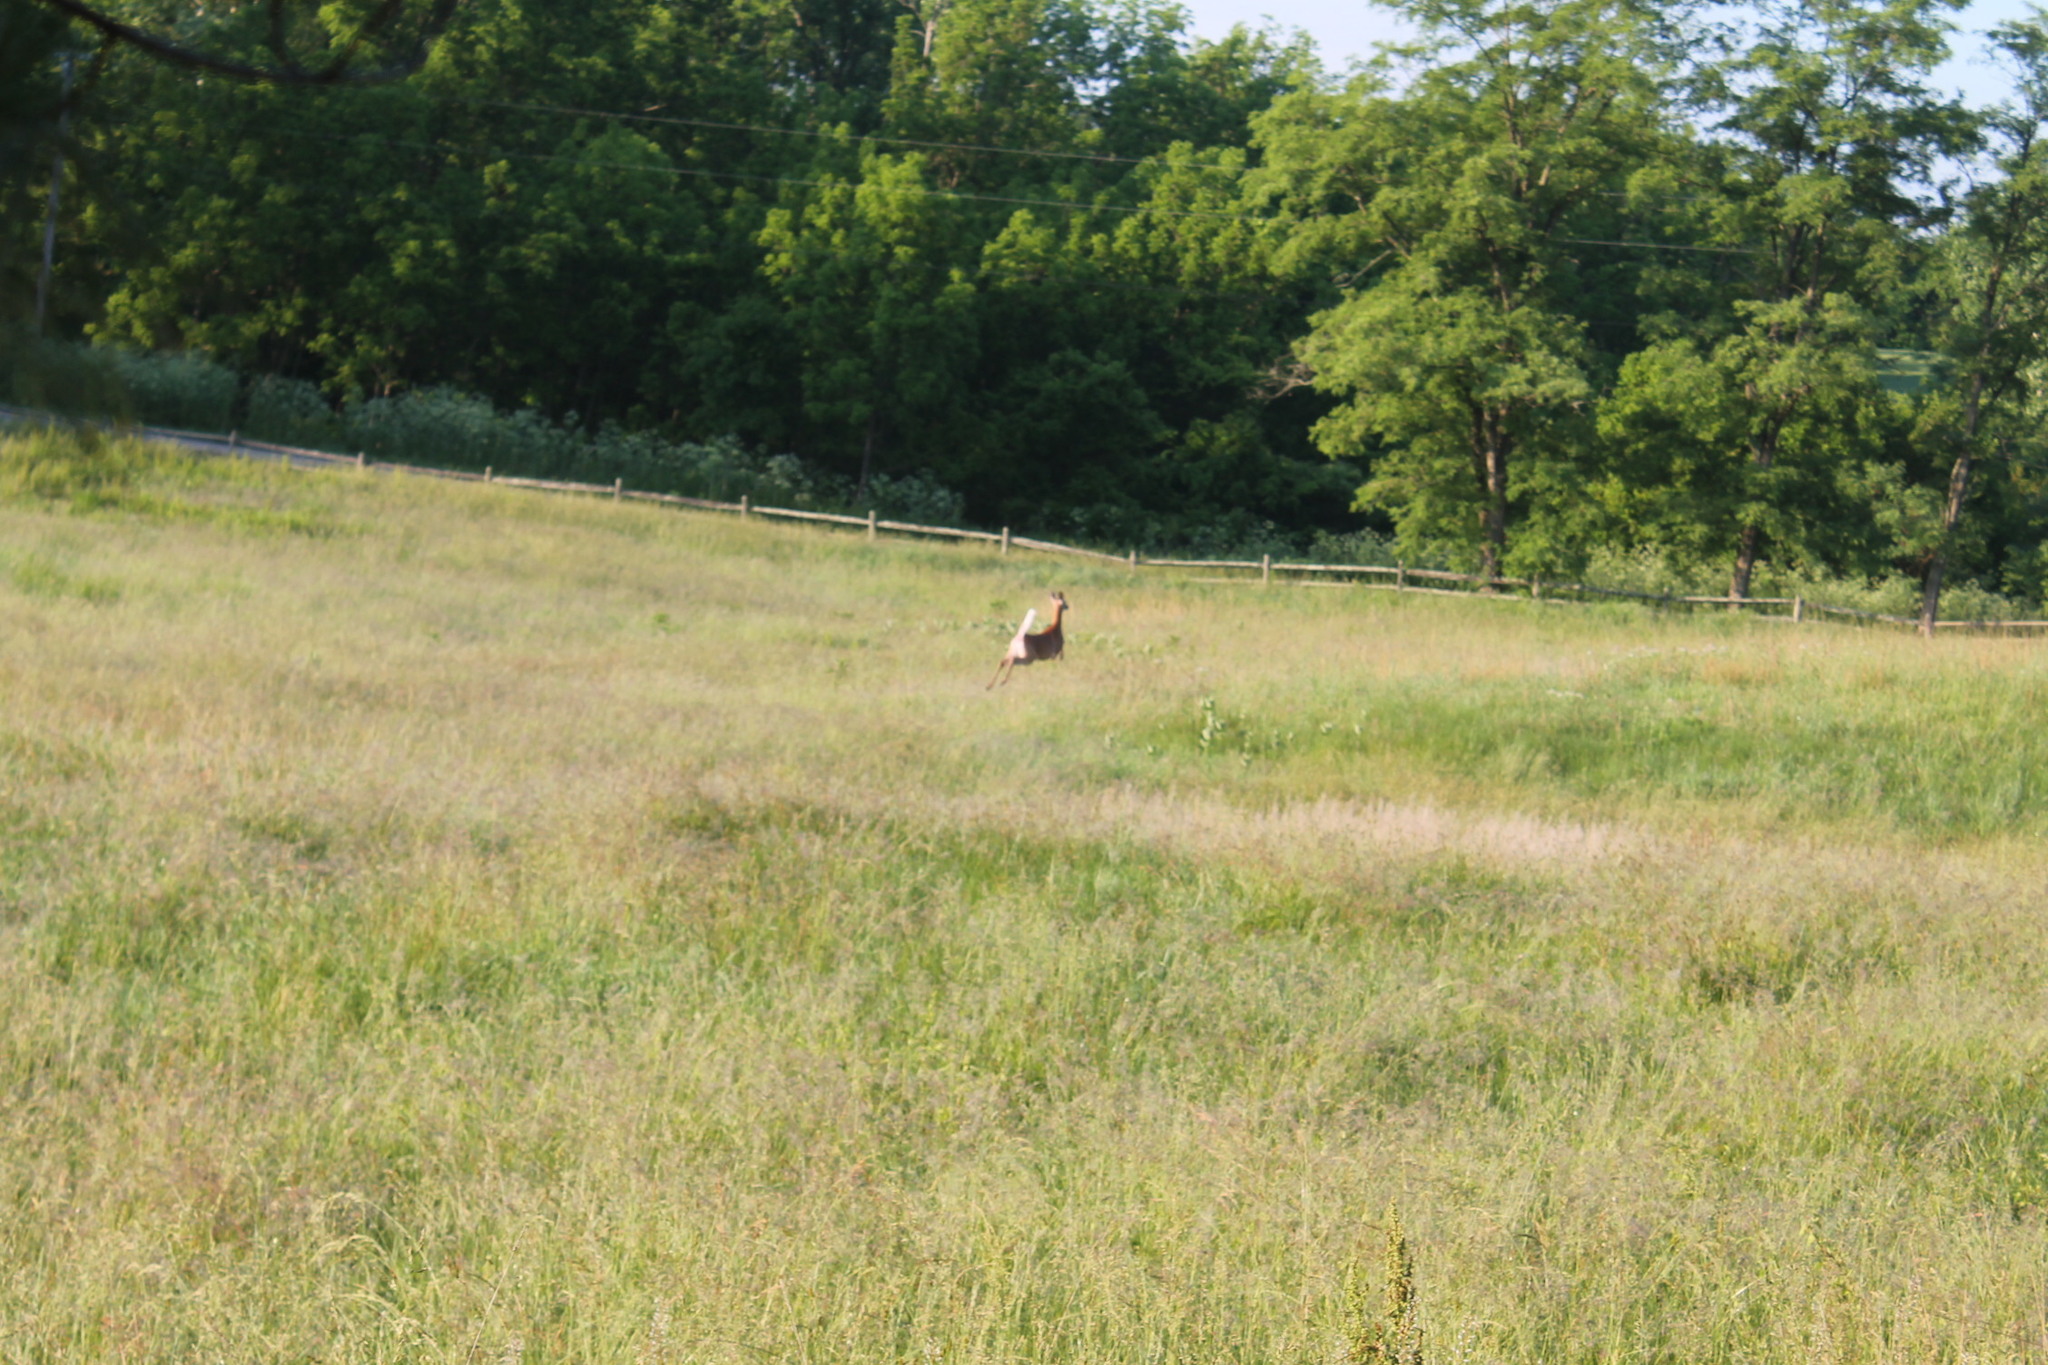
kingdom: Animalia
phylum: Chordata
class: Mammalia
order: Artiodactyla
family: Cervidae
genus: Odocoileus
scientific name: Odocoileus virginianus
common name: White-tailed deer
